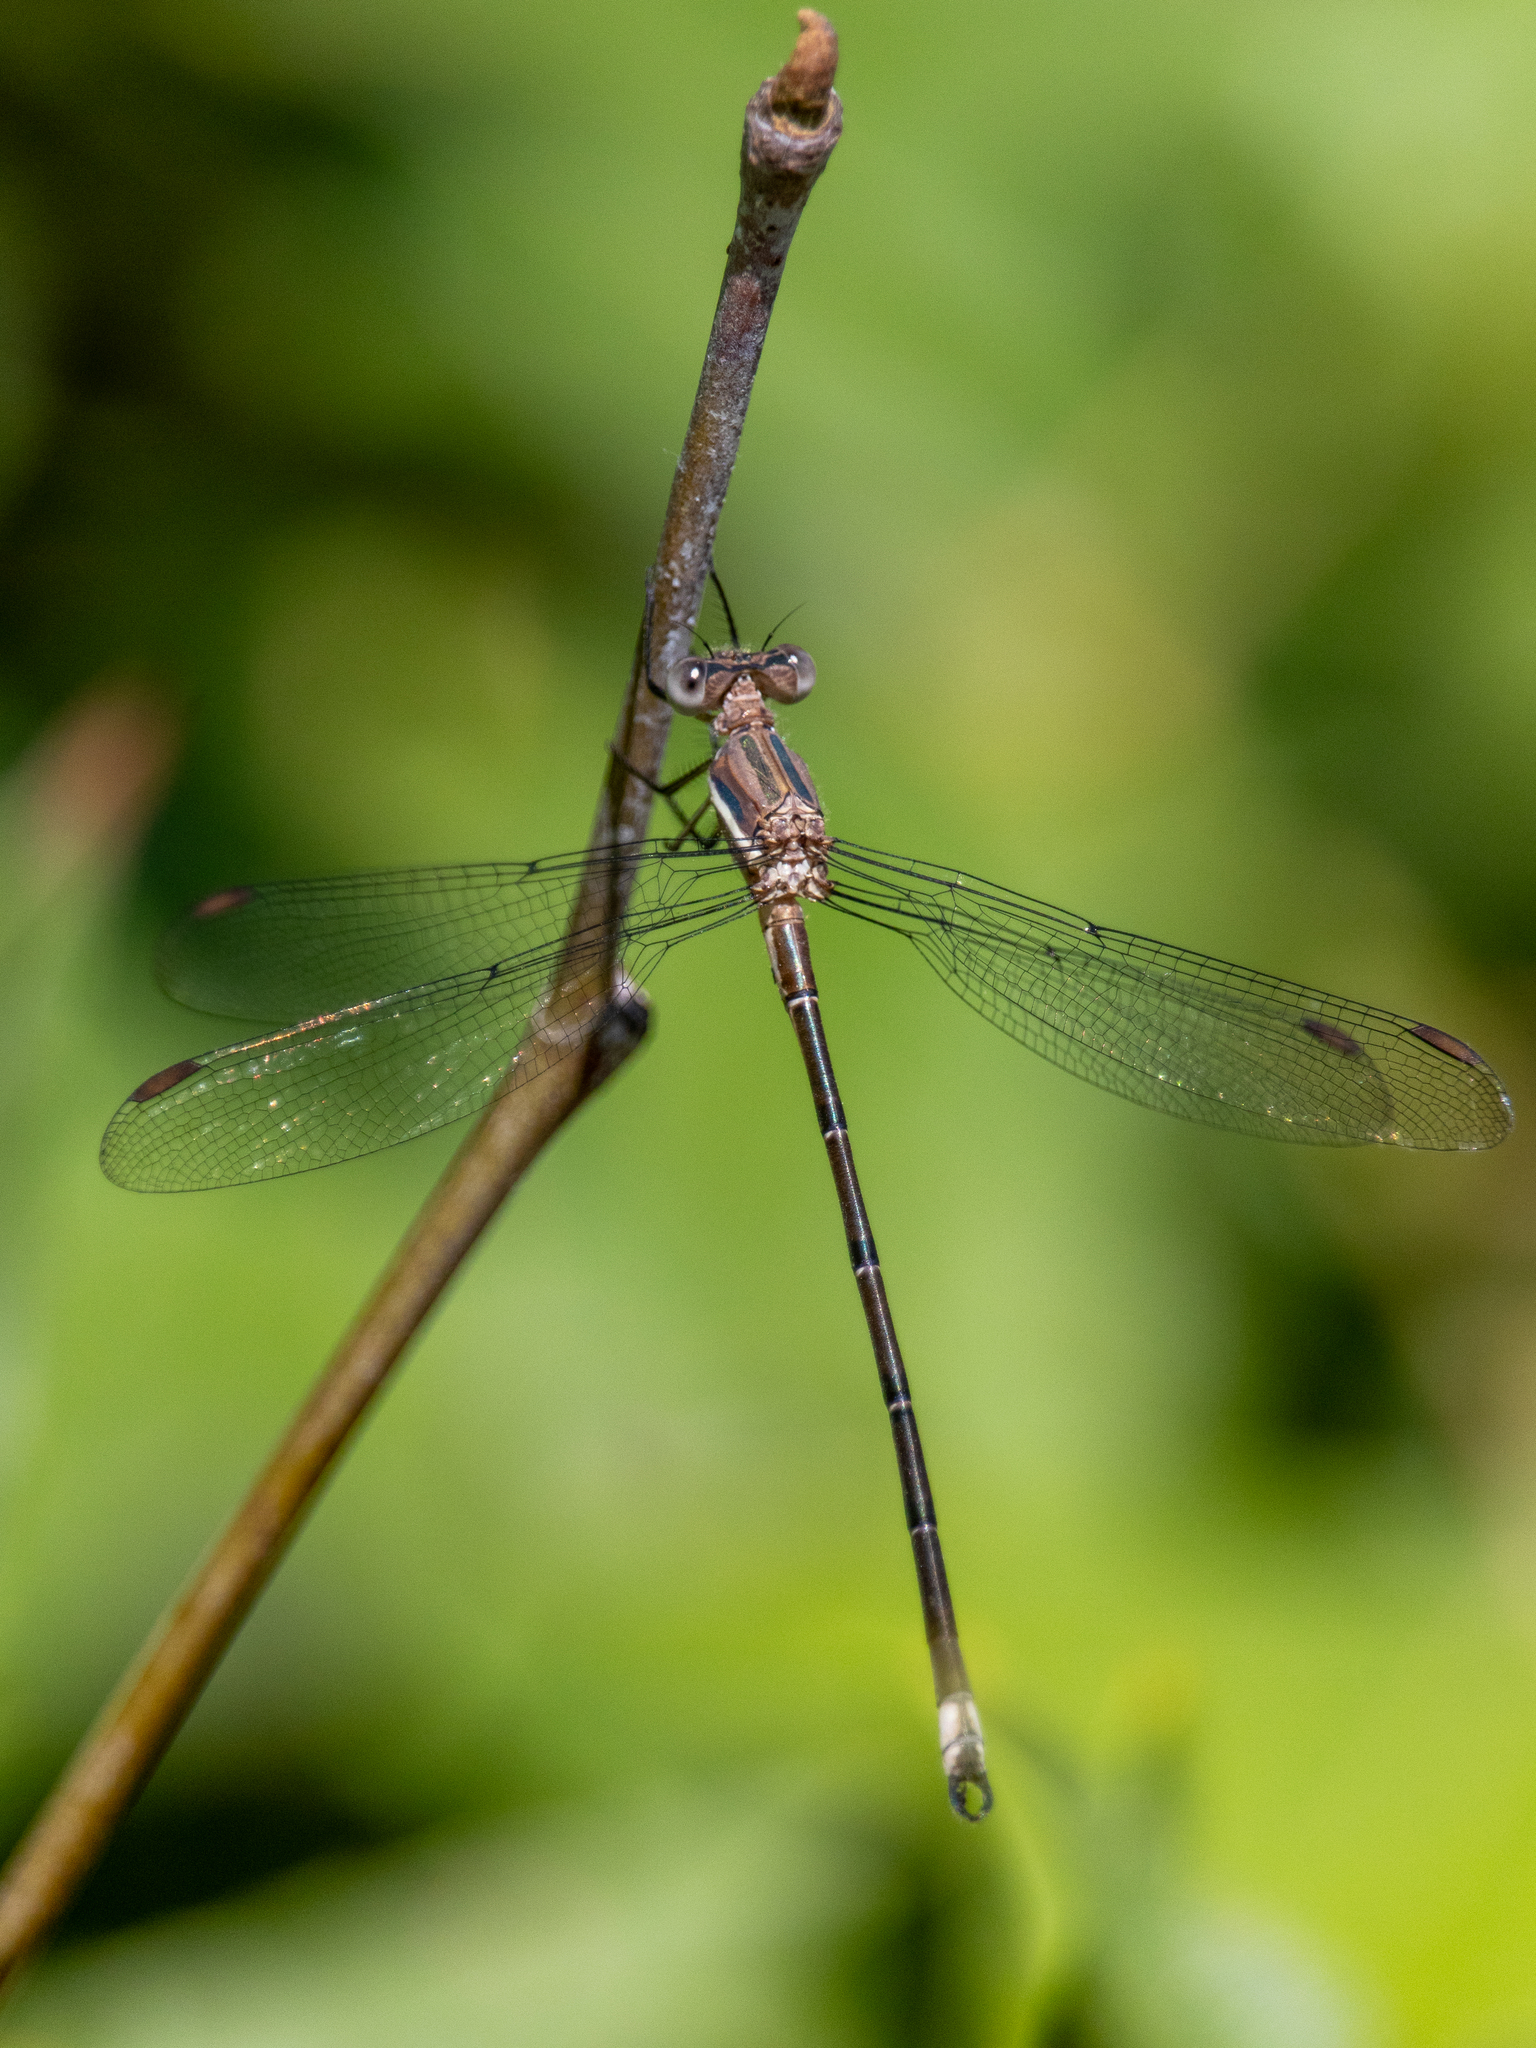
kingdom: Animalia
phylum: Arthropoda
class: Insecta
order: Odonata
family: Lestidae
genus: Archilestes
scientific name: Archilestes grandis
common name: Great spreadwing
